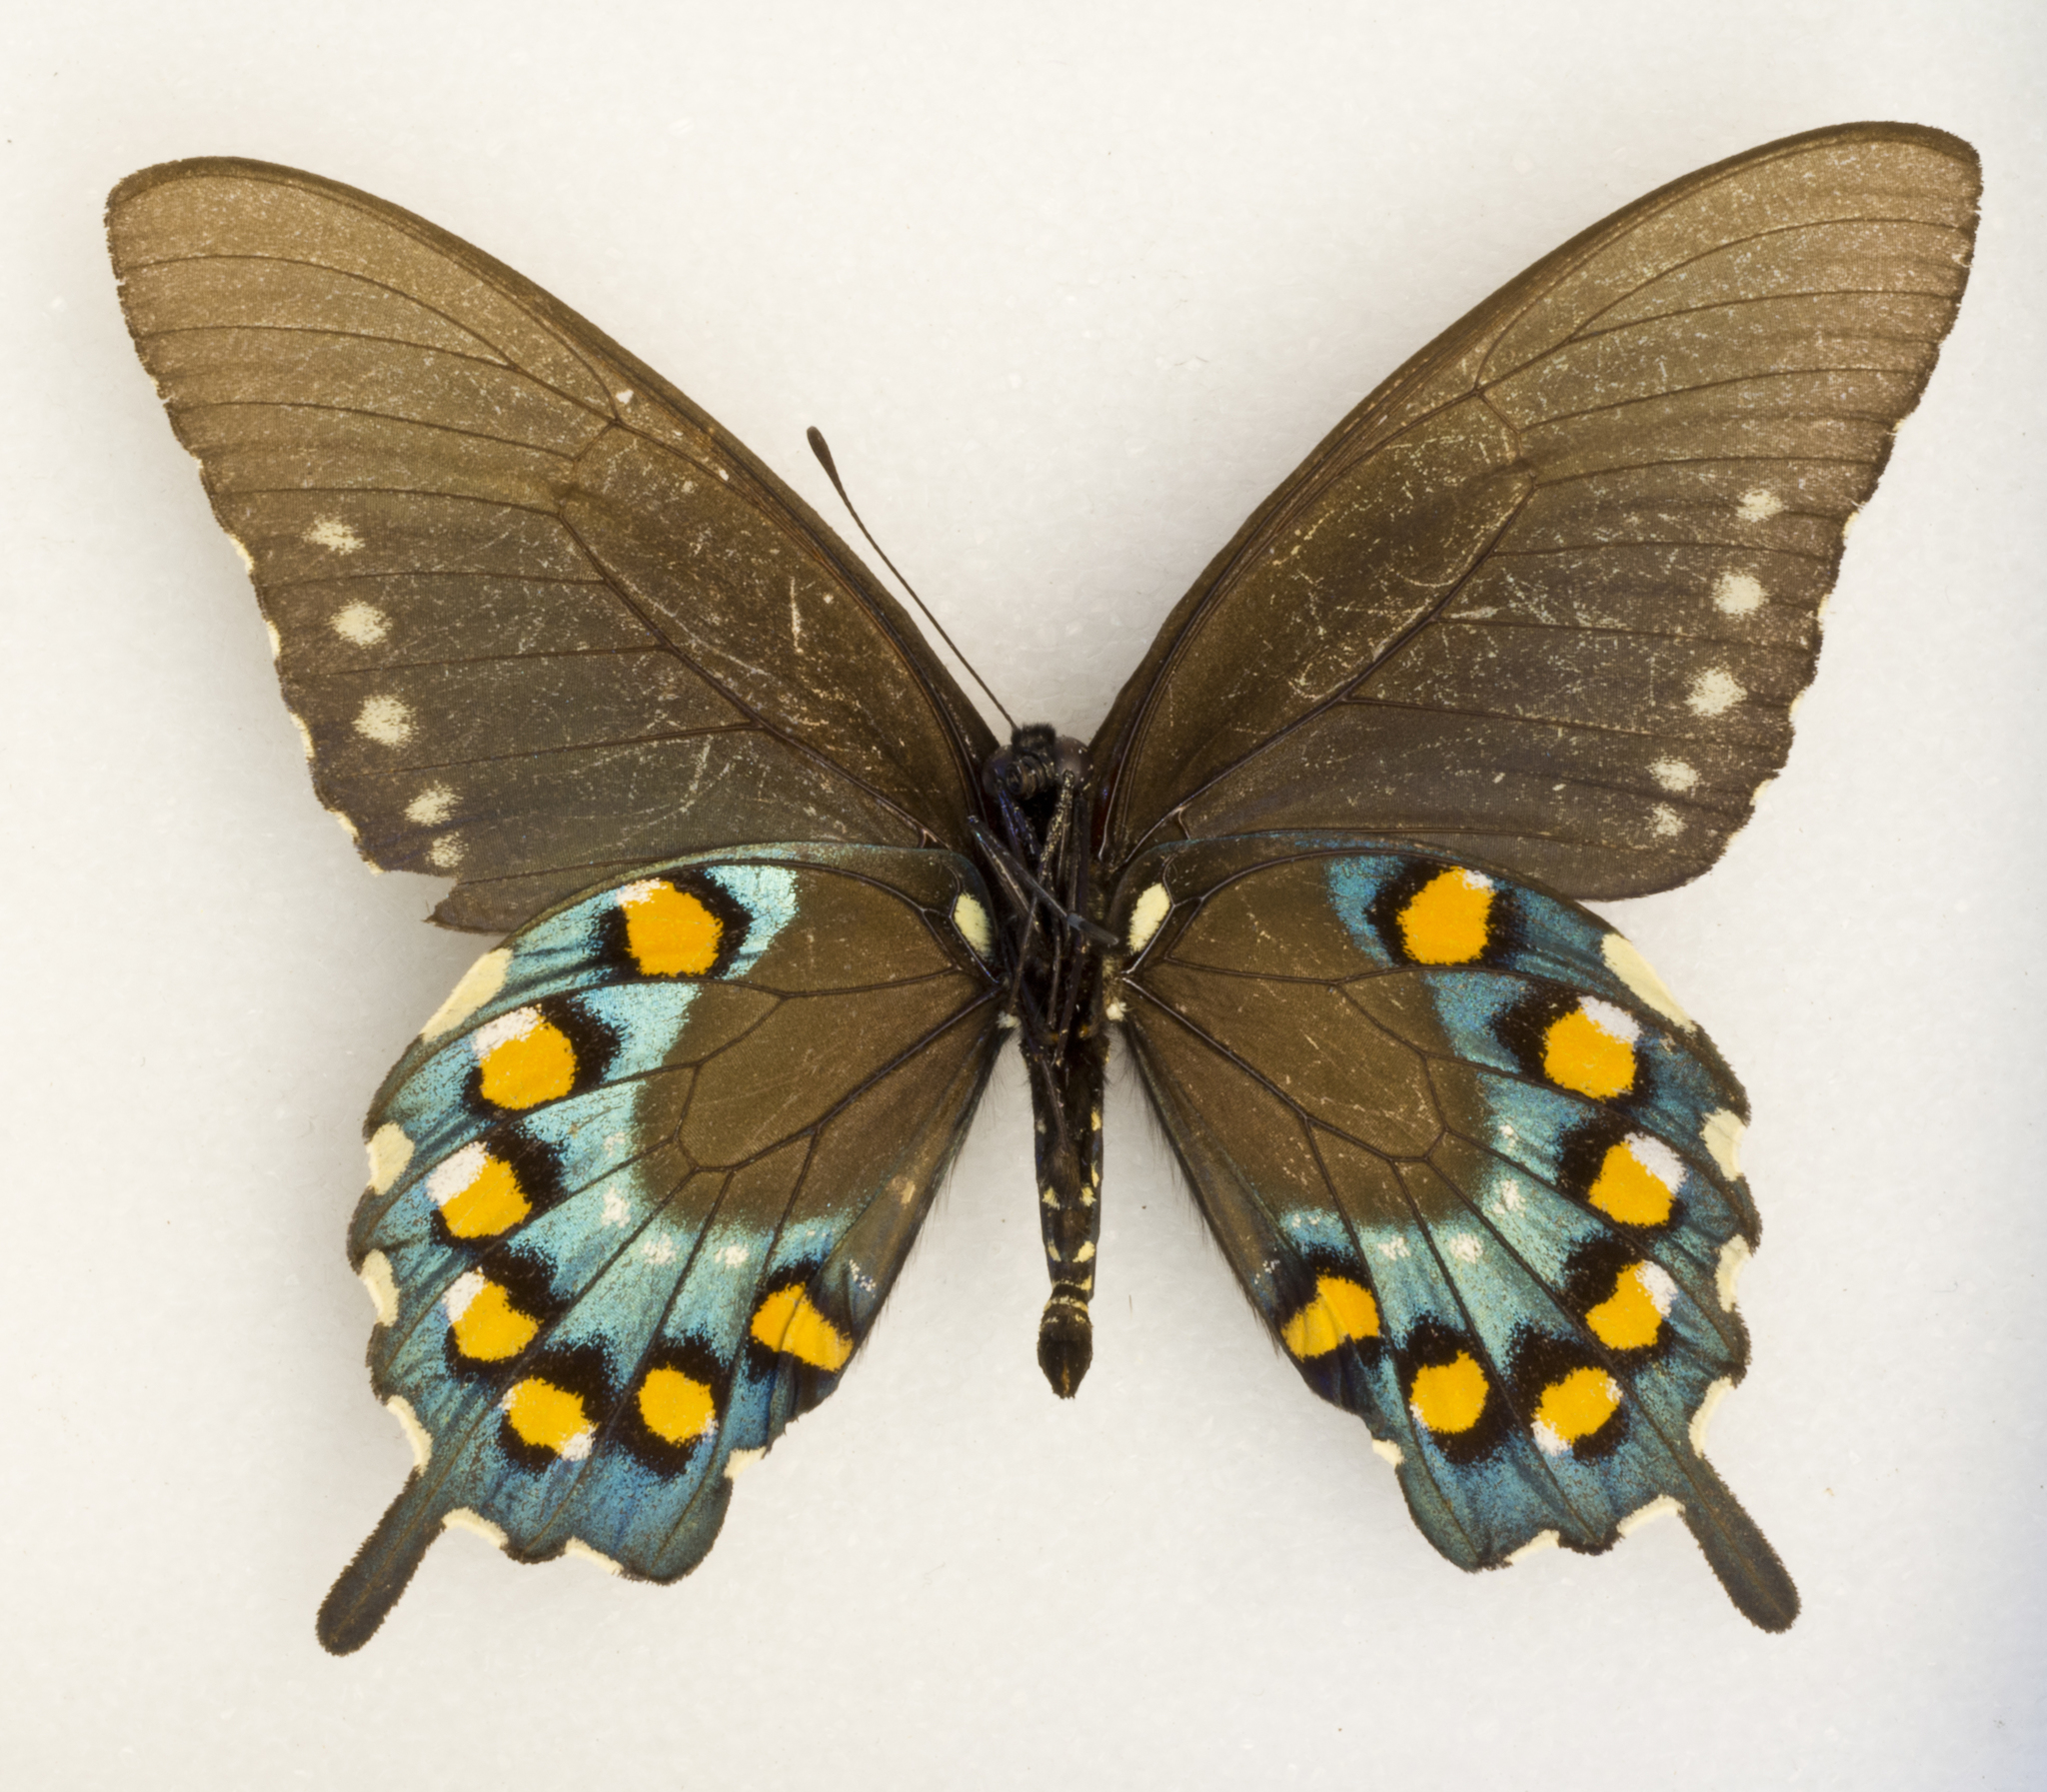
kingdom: Animalia
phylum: Arthropoda
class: Insecta
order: Lepidoptera
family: Papilionidae
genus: Battus
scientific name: Battus philenor
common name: Pipevine swallowtail
